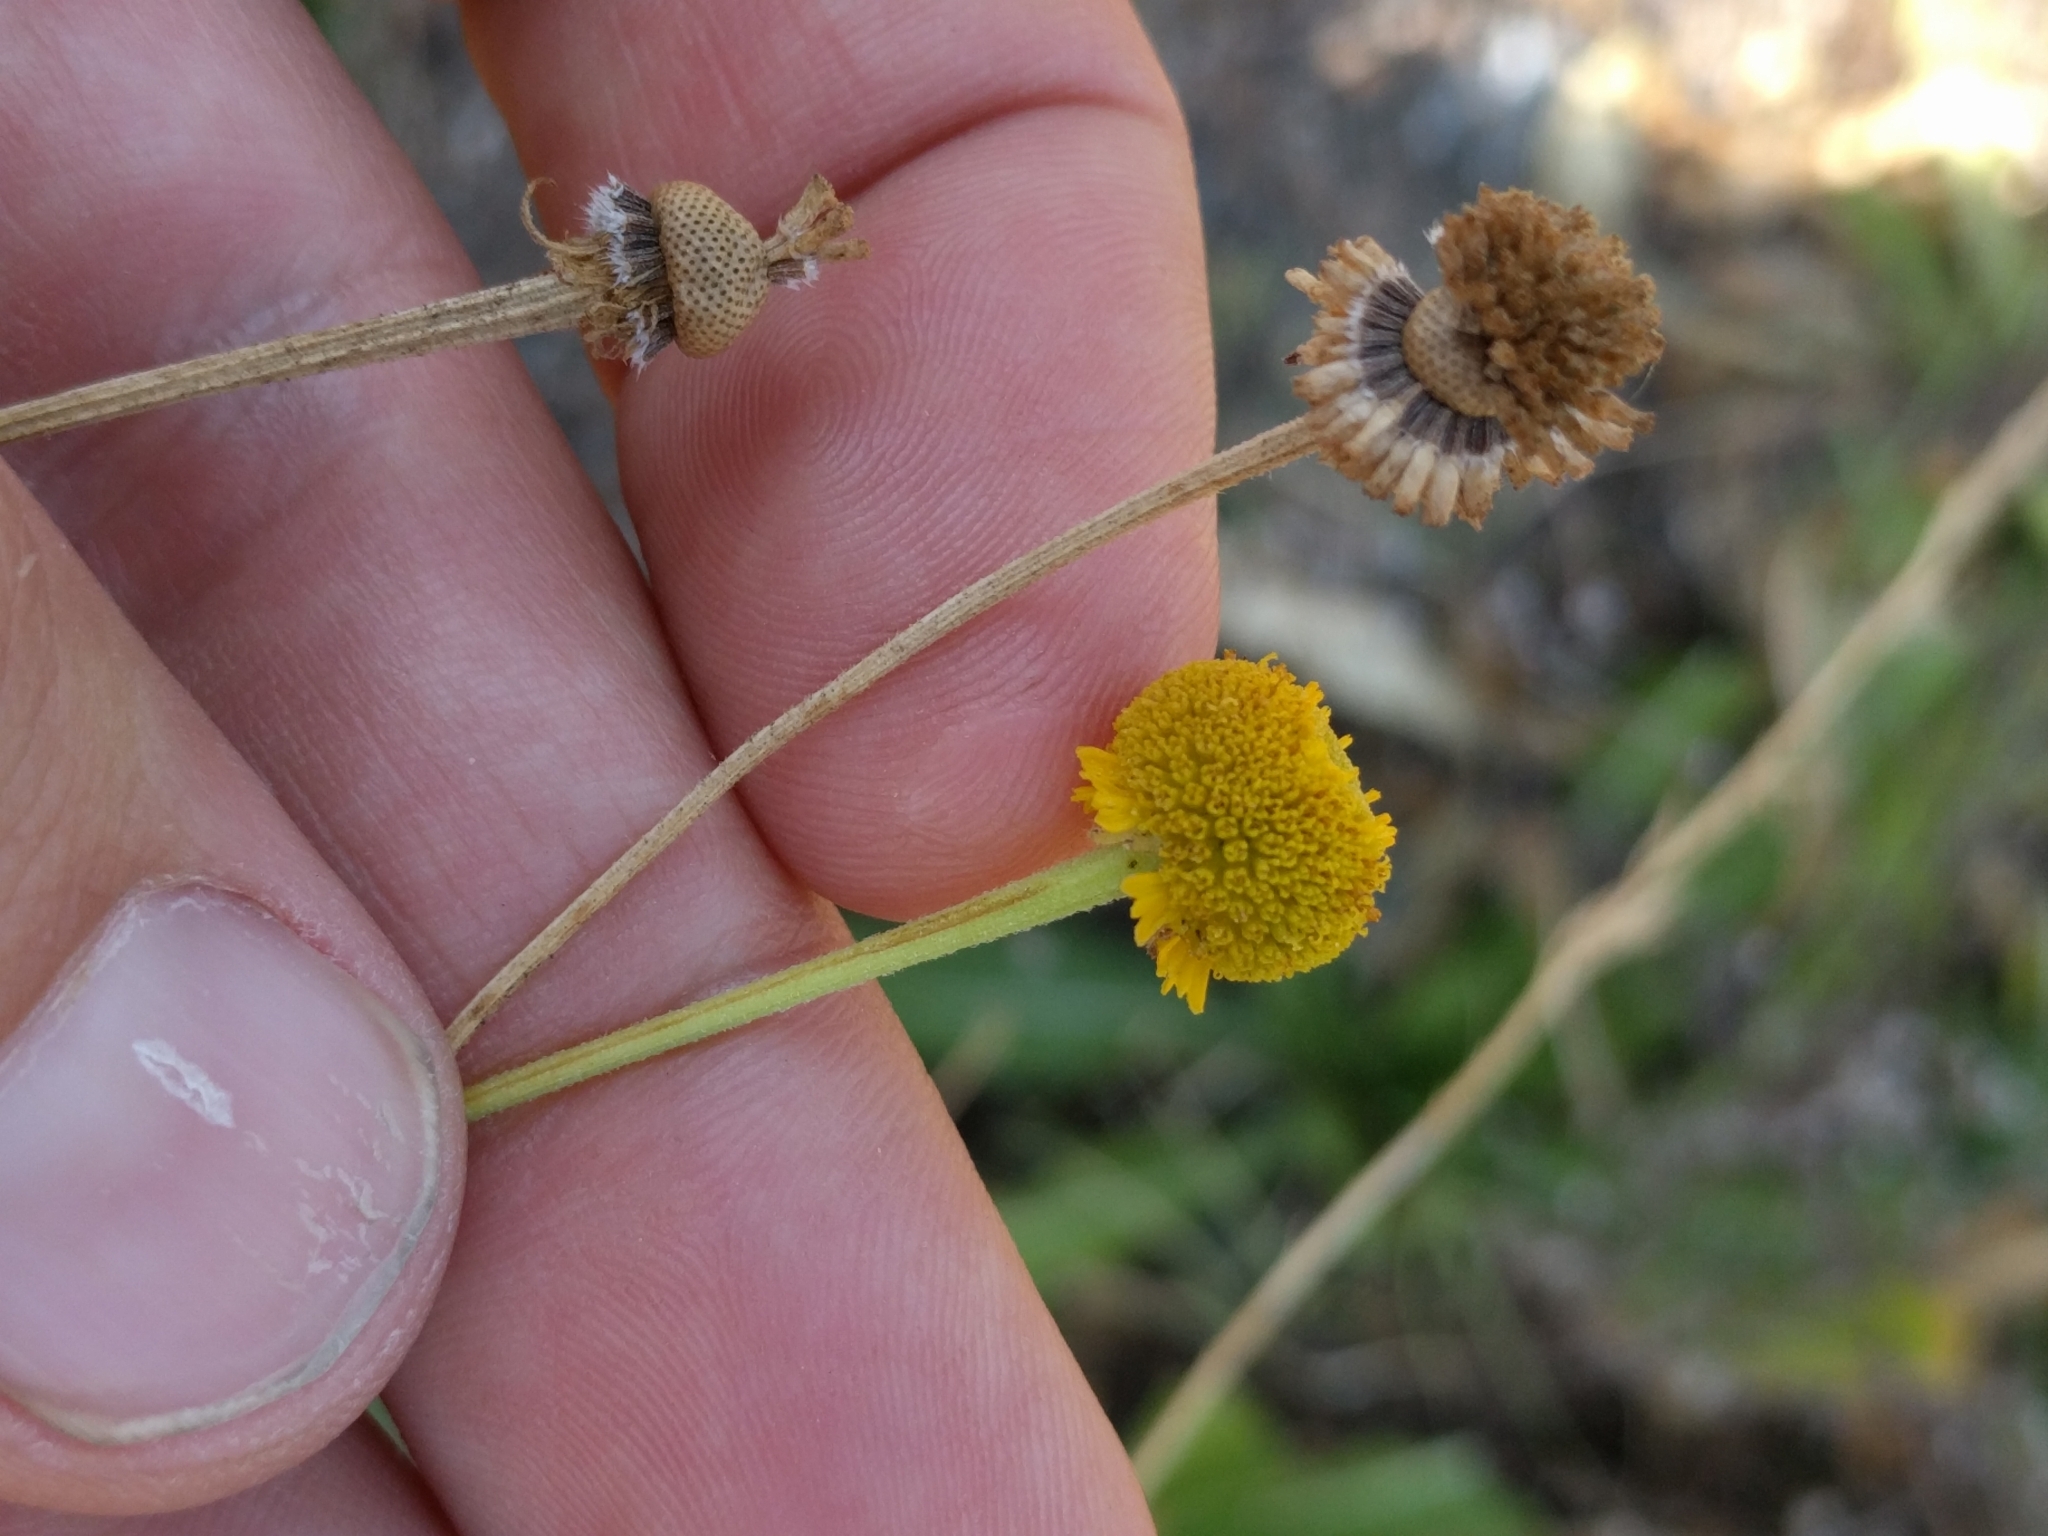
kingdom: Plantae
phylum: Tracheophyta
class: Magnoliopsida
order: Asterales
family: Asteraceae
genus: Helenium
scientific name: Helenium puberulum
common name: Sneezewort
